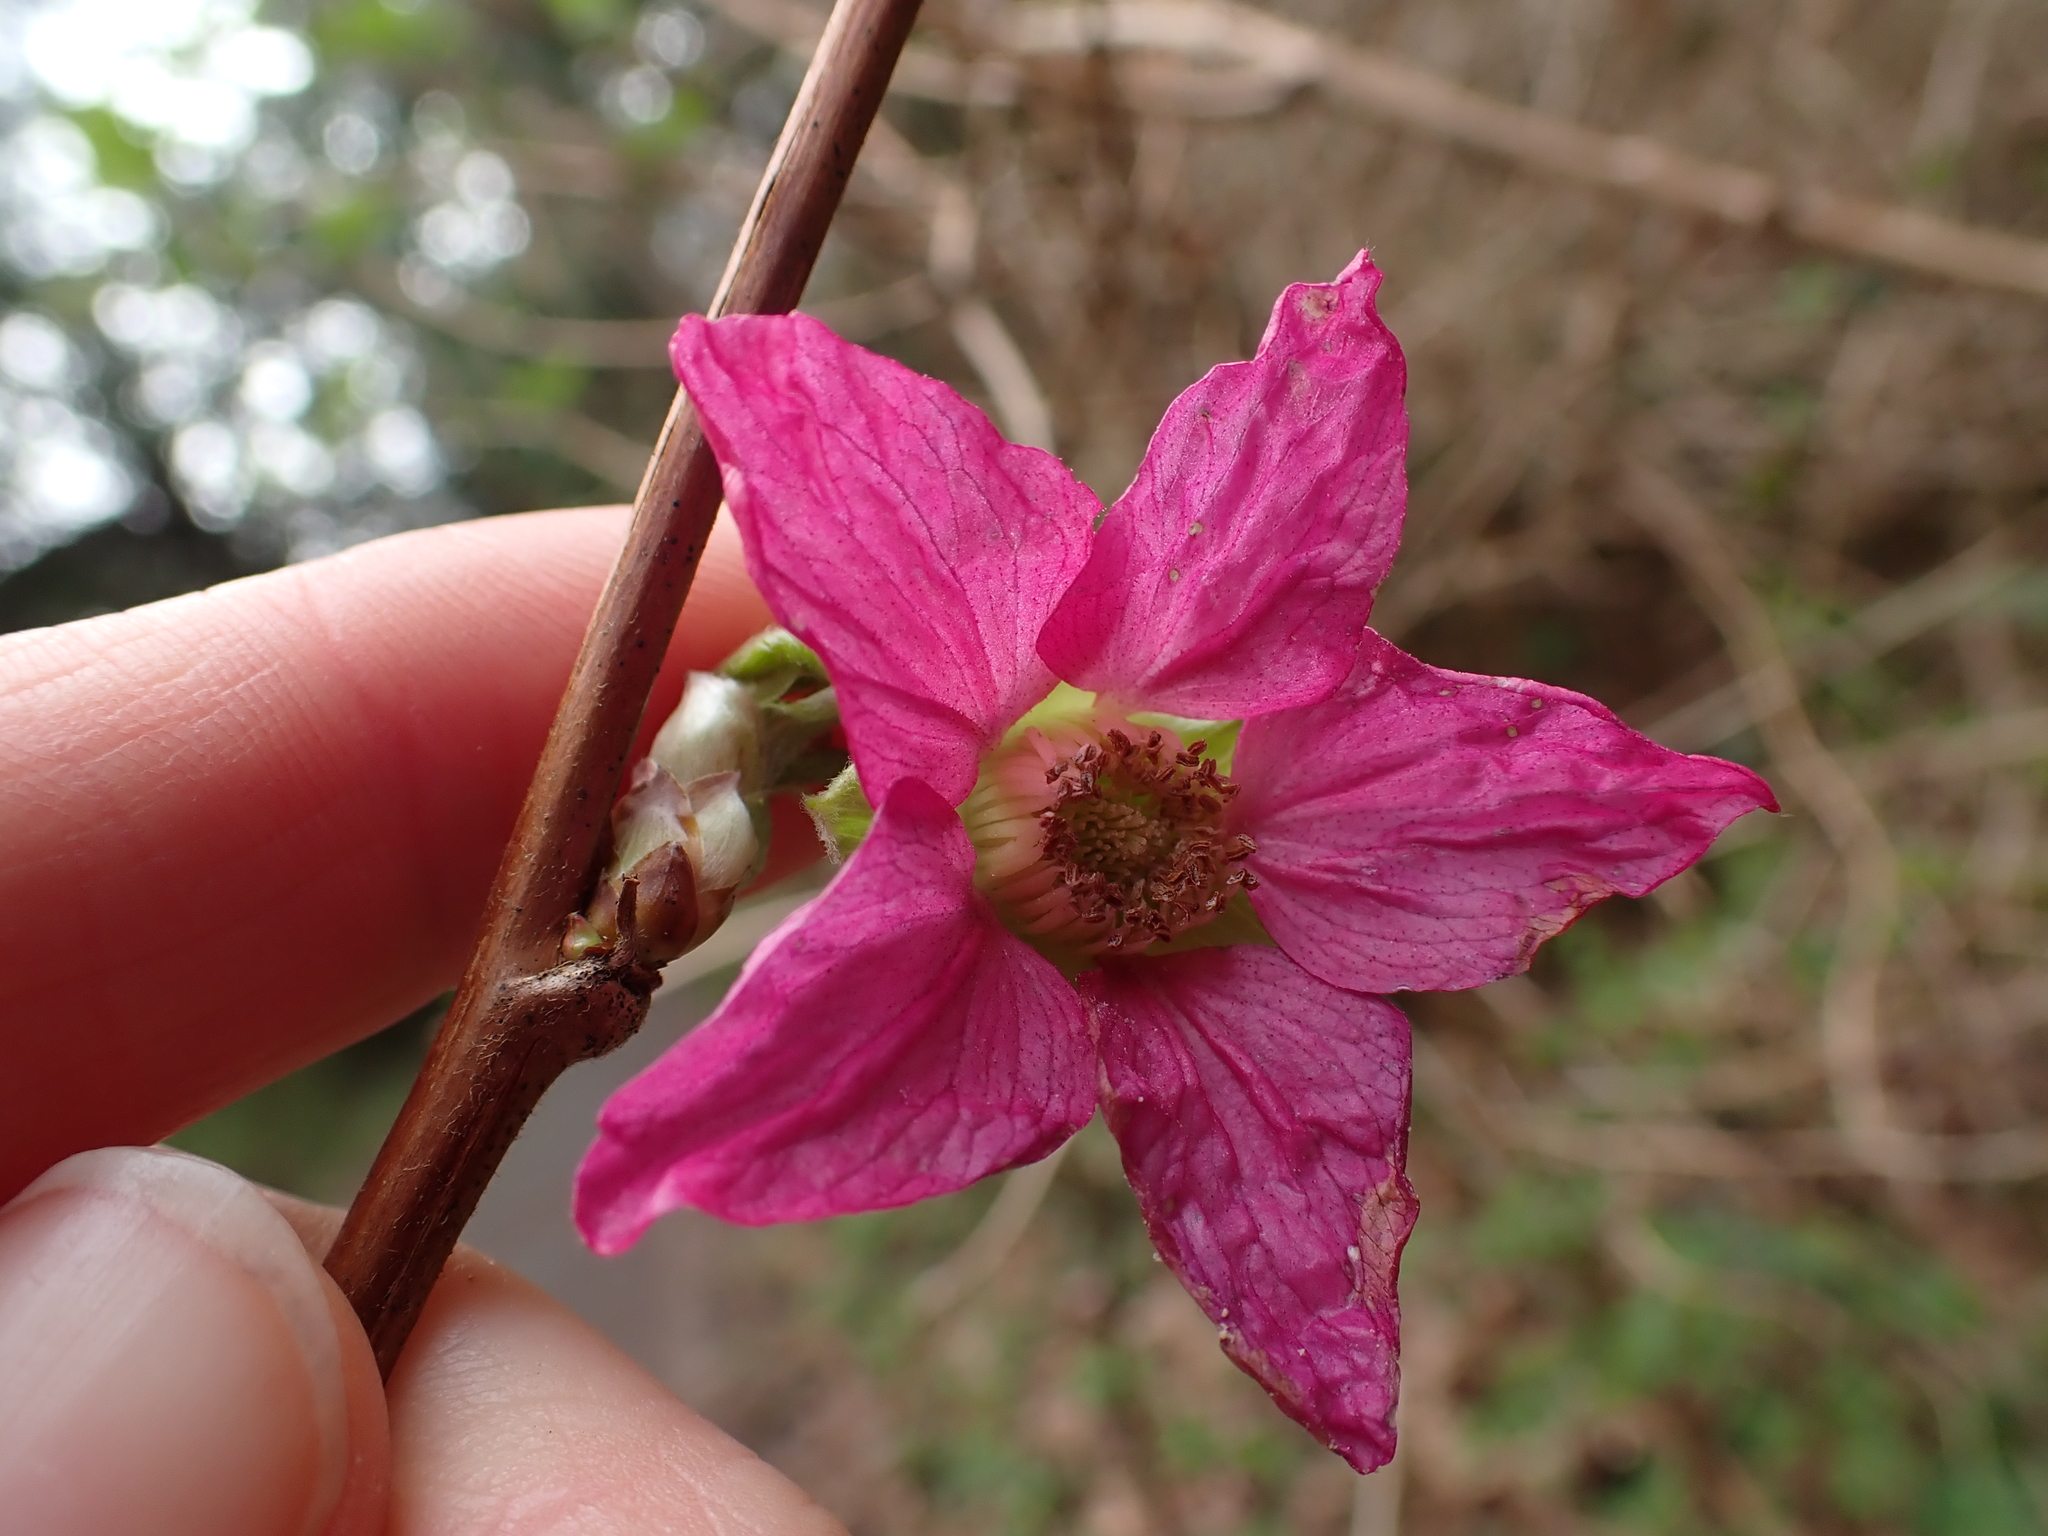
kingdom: Plantae
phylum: Tracheophyta
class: Magnoliopsida
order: Rosales
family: Rosaceae
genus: Rubus
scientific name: Rubus spectabilis
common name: Salmonberry
